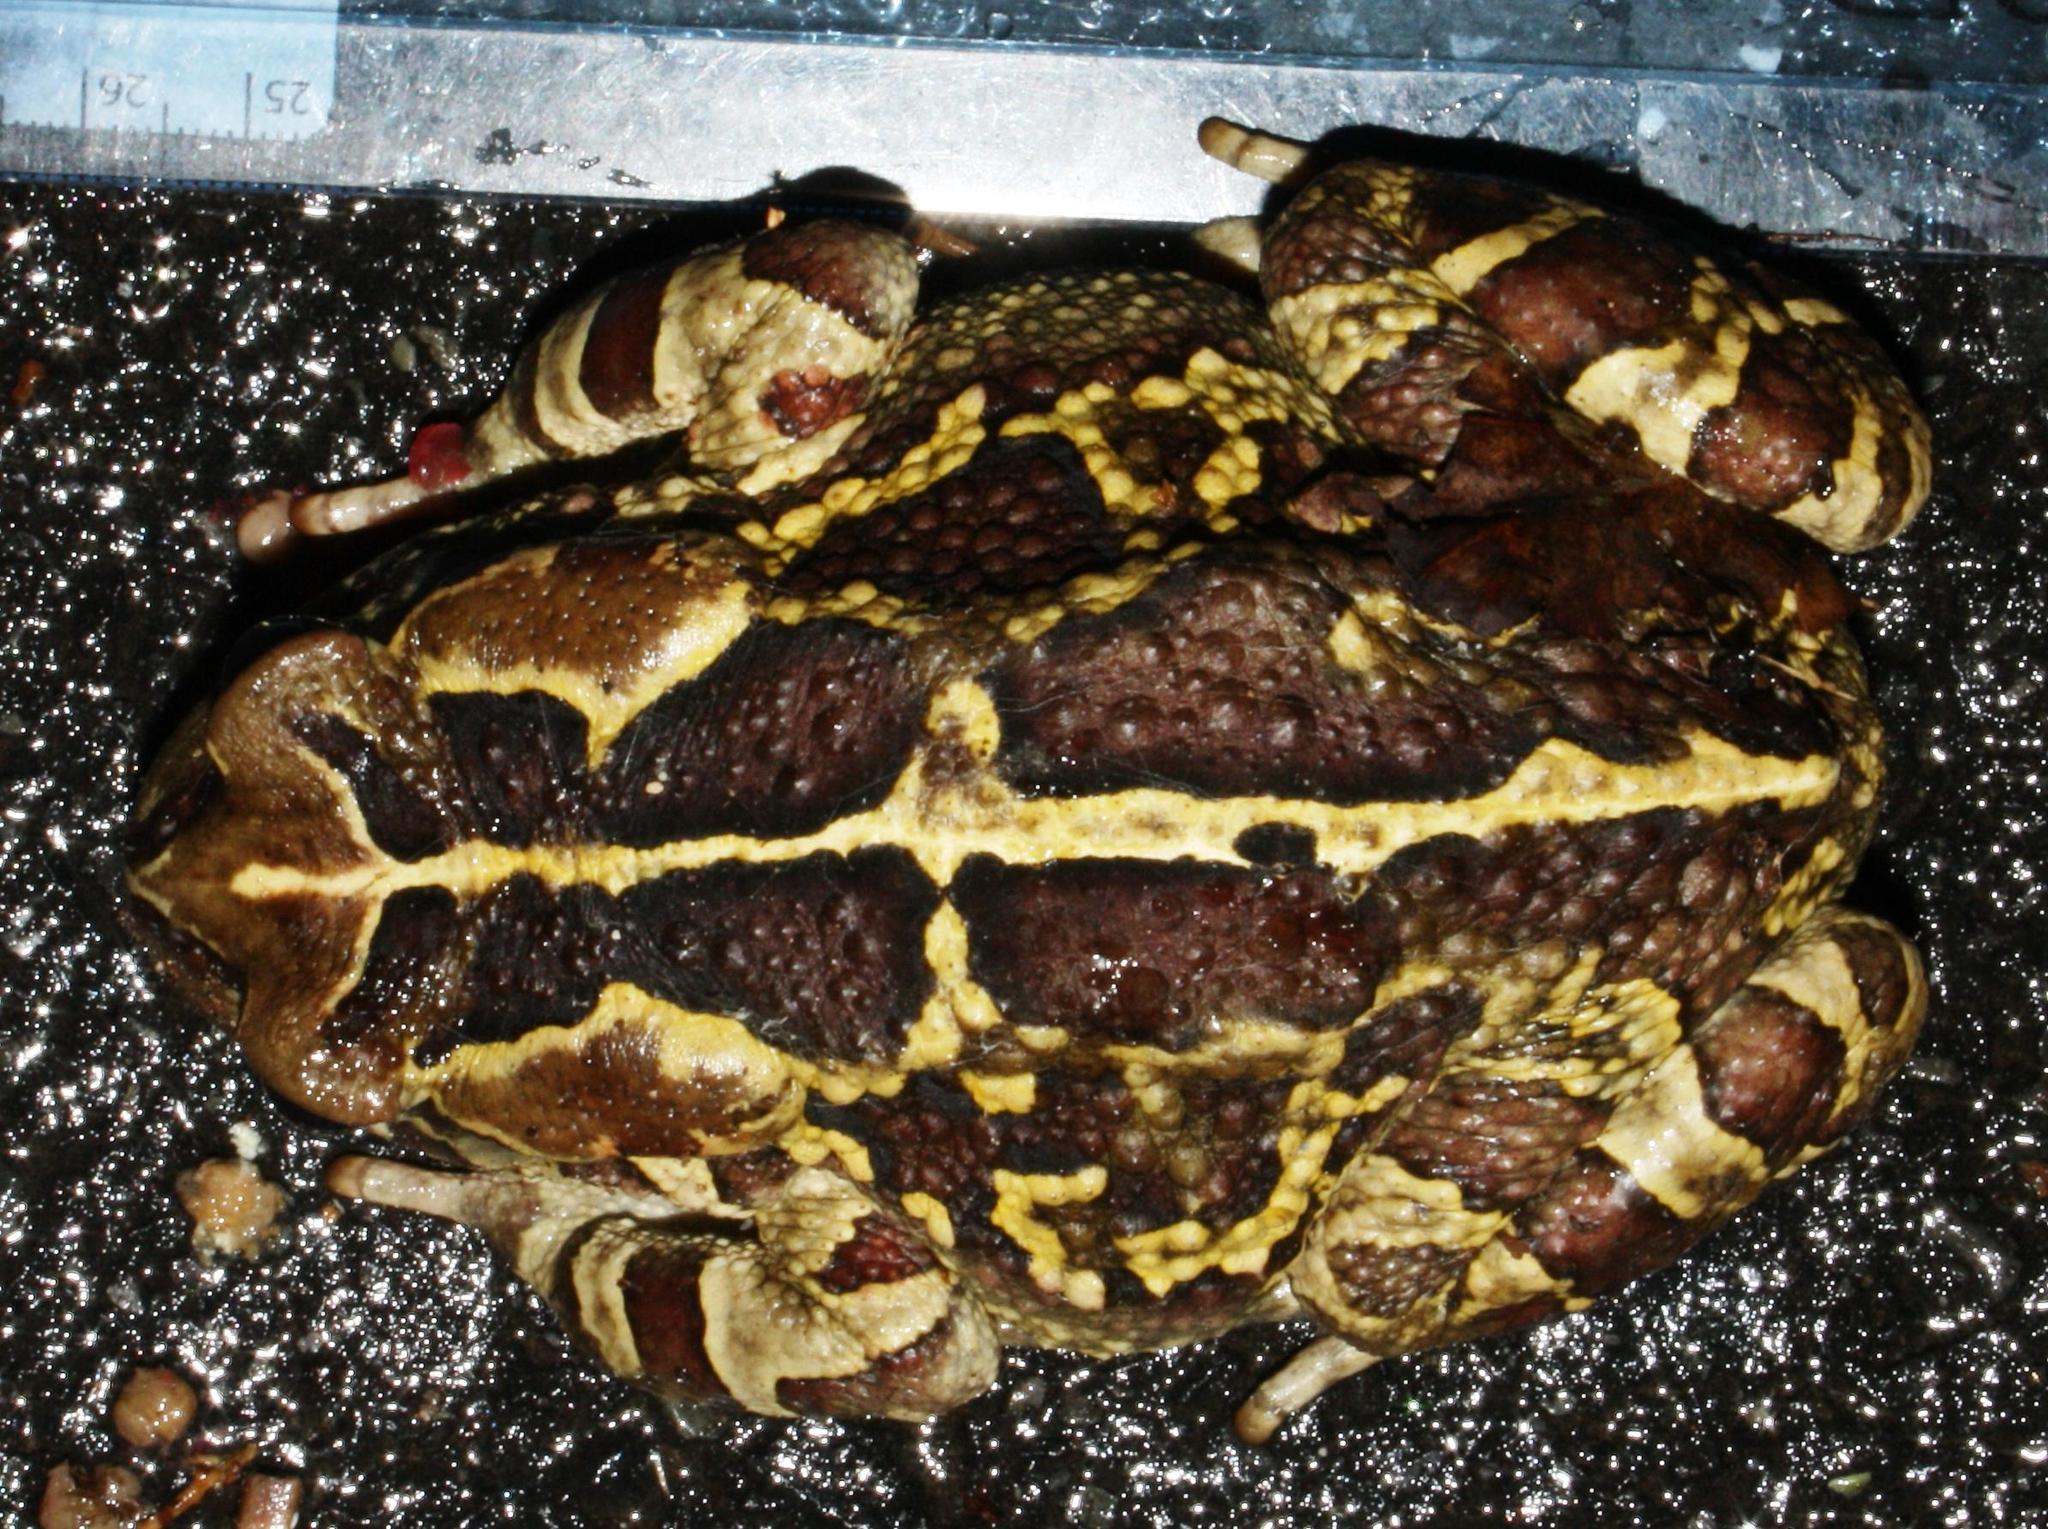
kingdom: Animalia
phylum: Chordata
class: Amphibia
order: Anura
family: Bufonidae
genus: Sclerophrys
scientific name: Sclerophrys pantherina
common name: Panther toad
